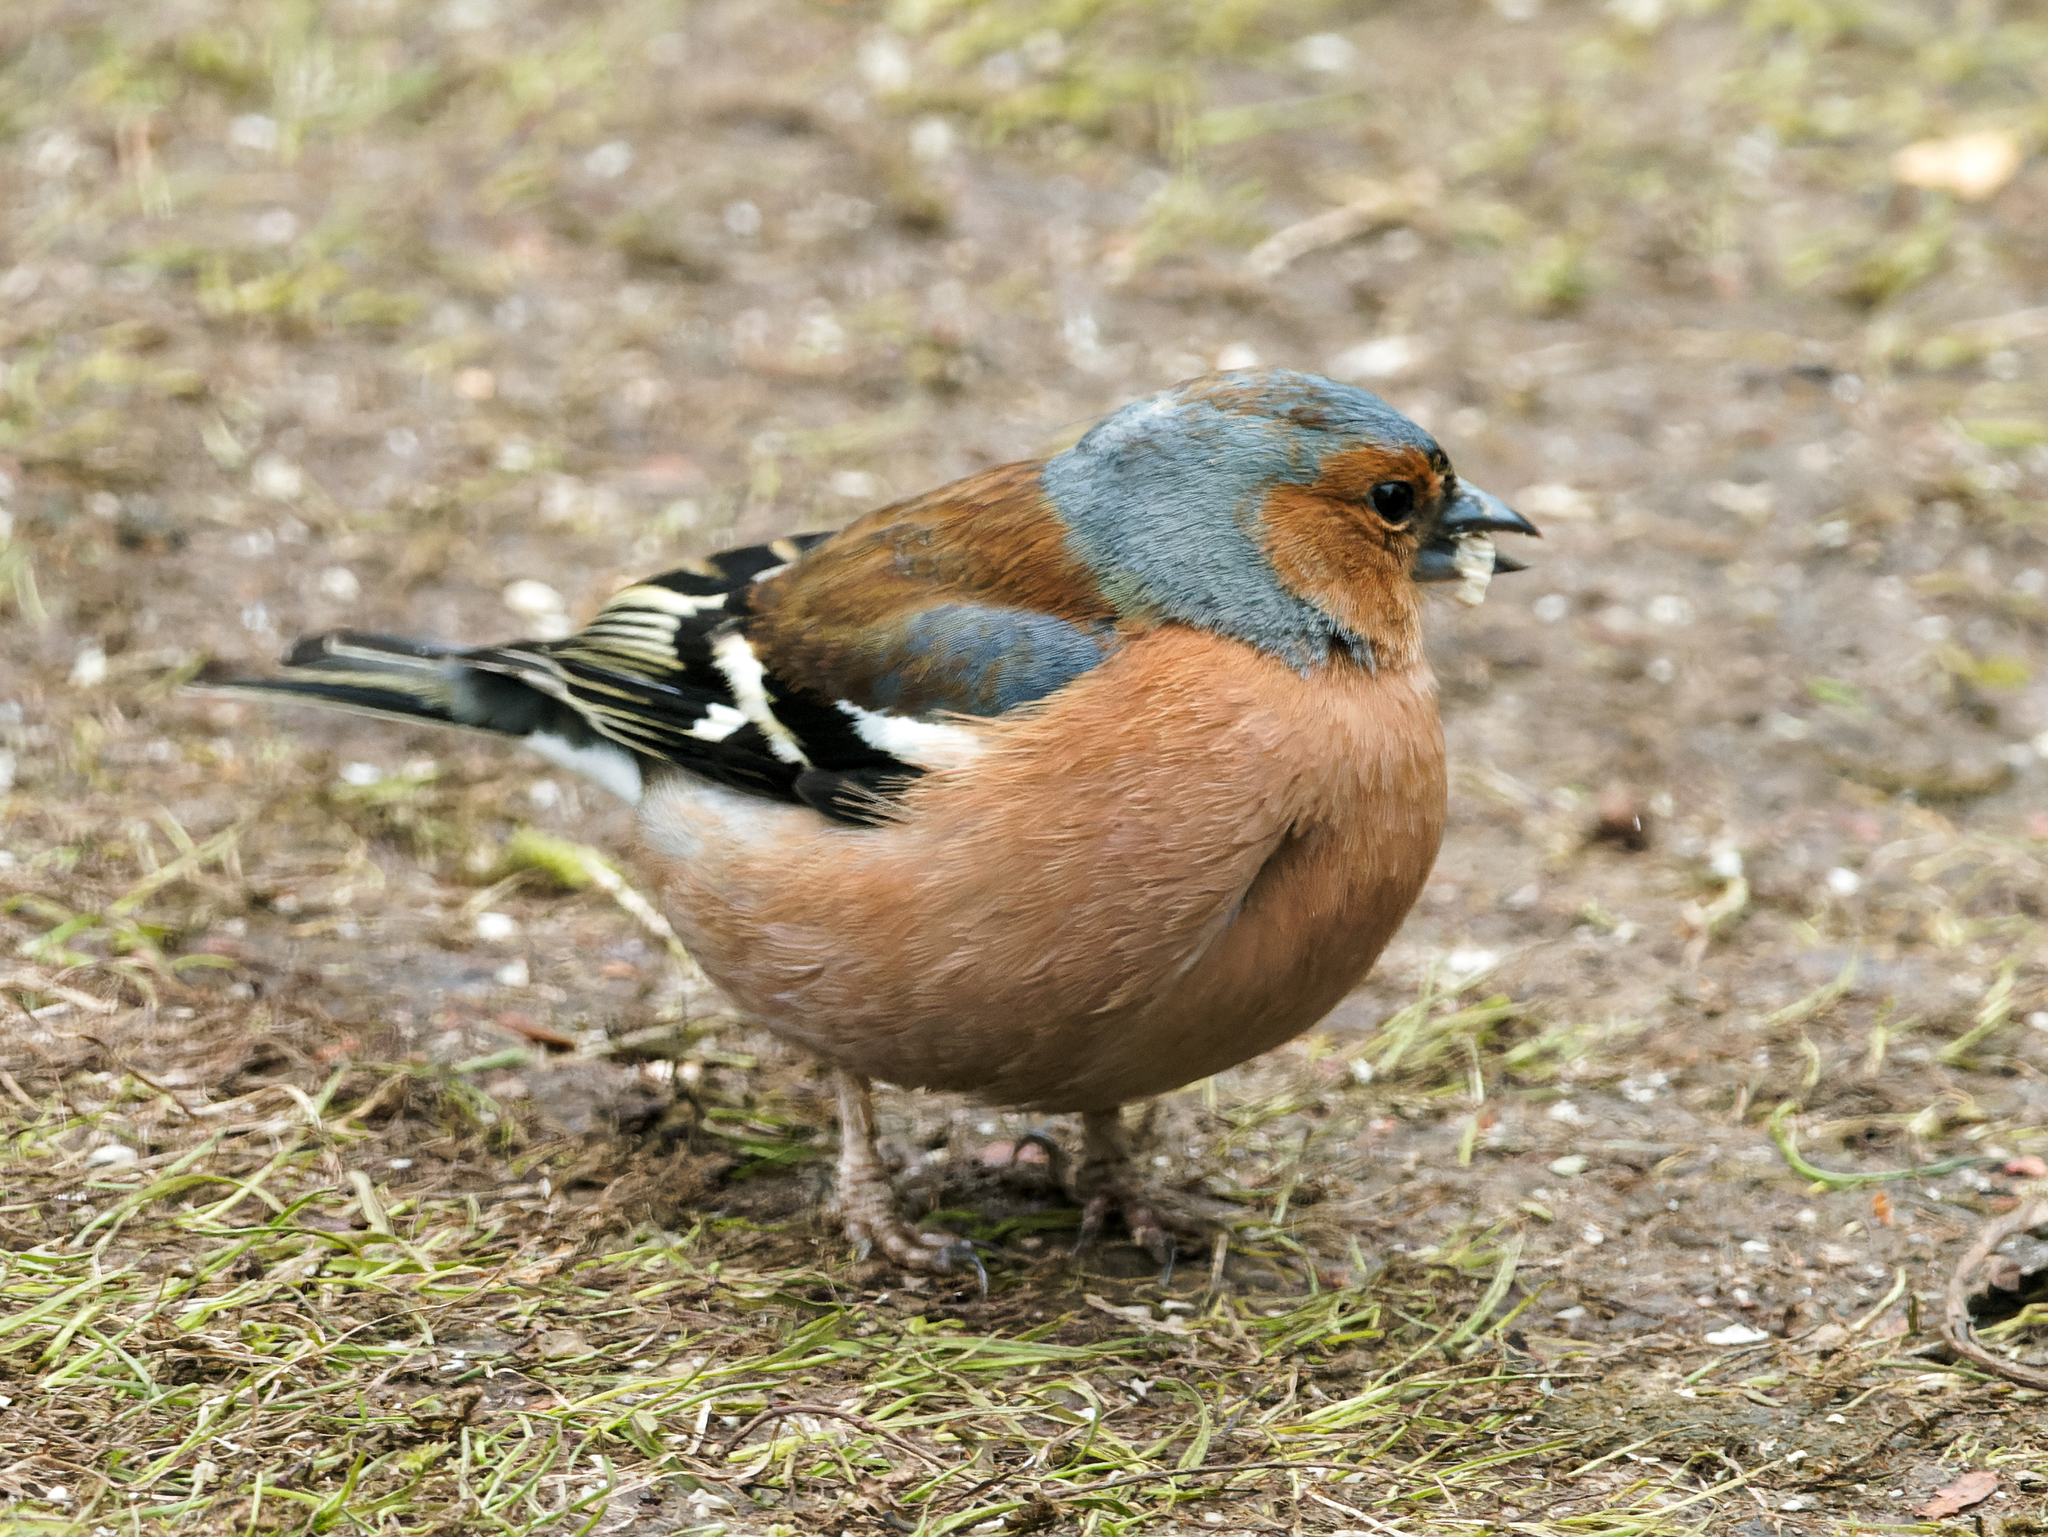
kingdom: Animalia
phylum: Chordata
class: Aves
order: Passeriformes
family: Fringillidae
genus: Fringilla
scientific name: Fringilla coelebs
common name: Common chaffinch
